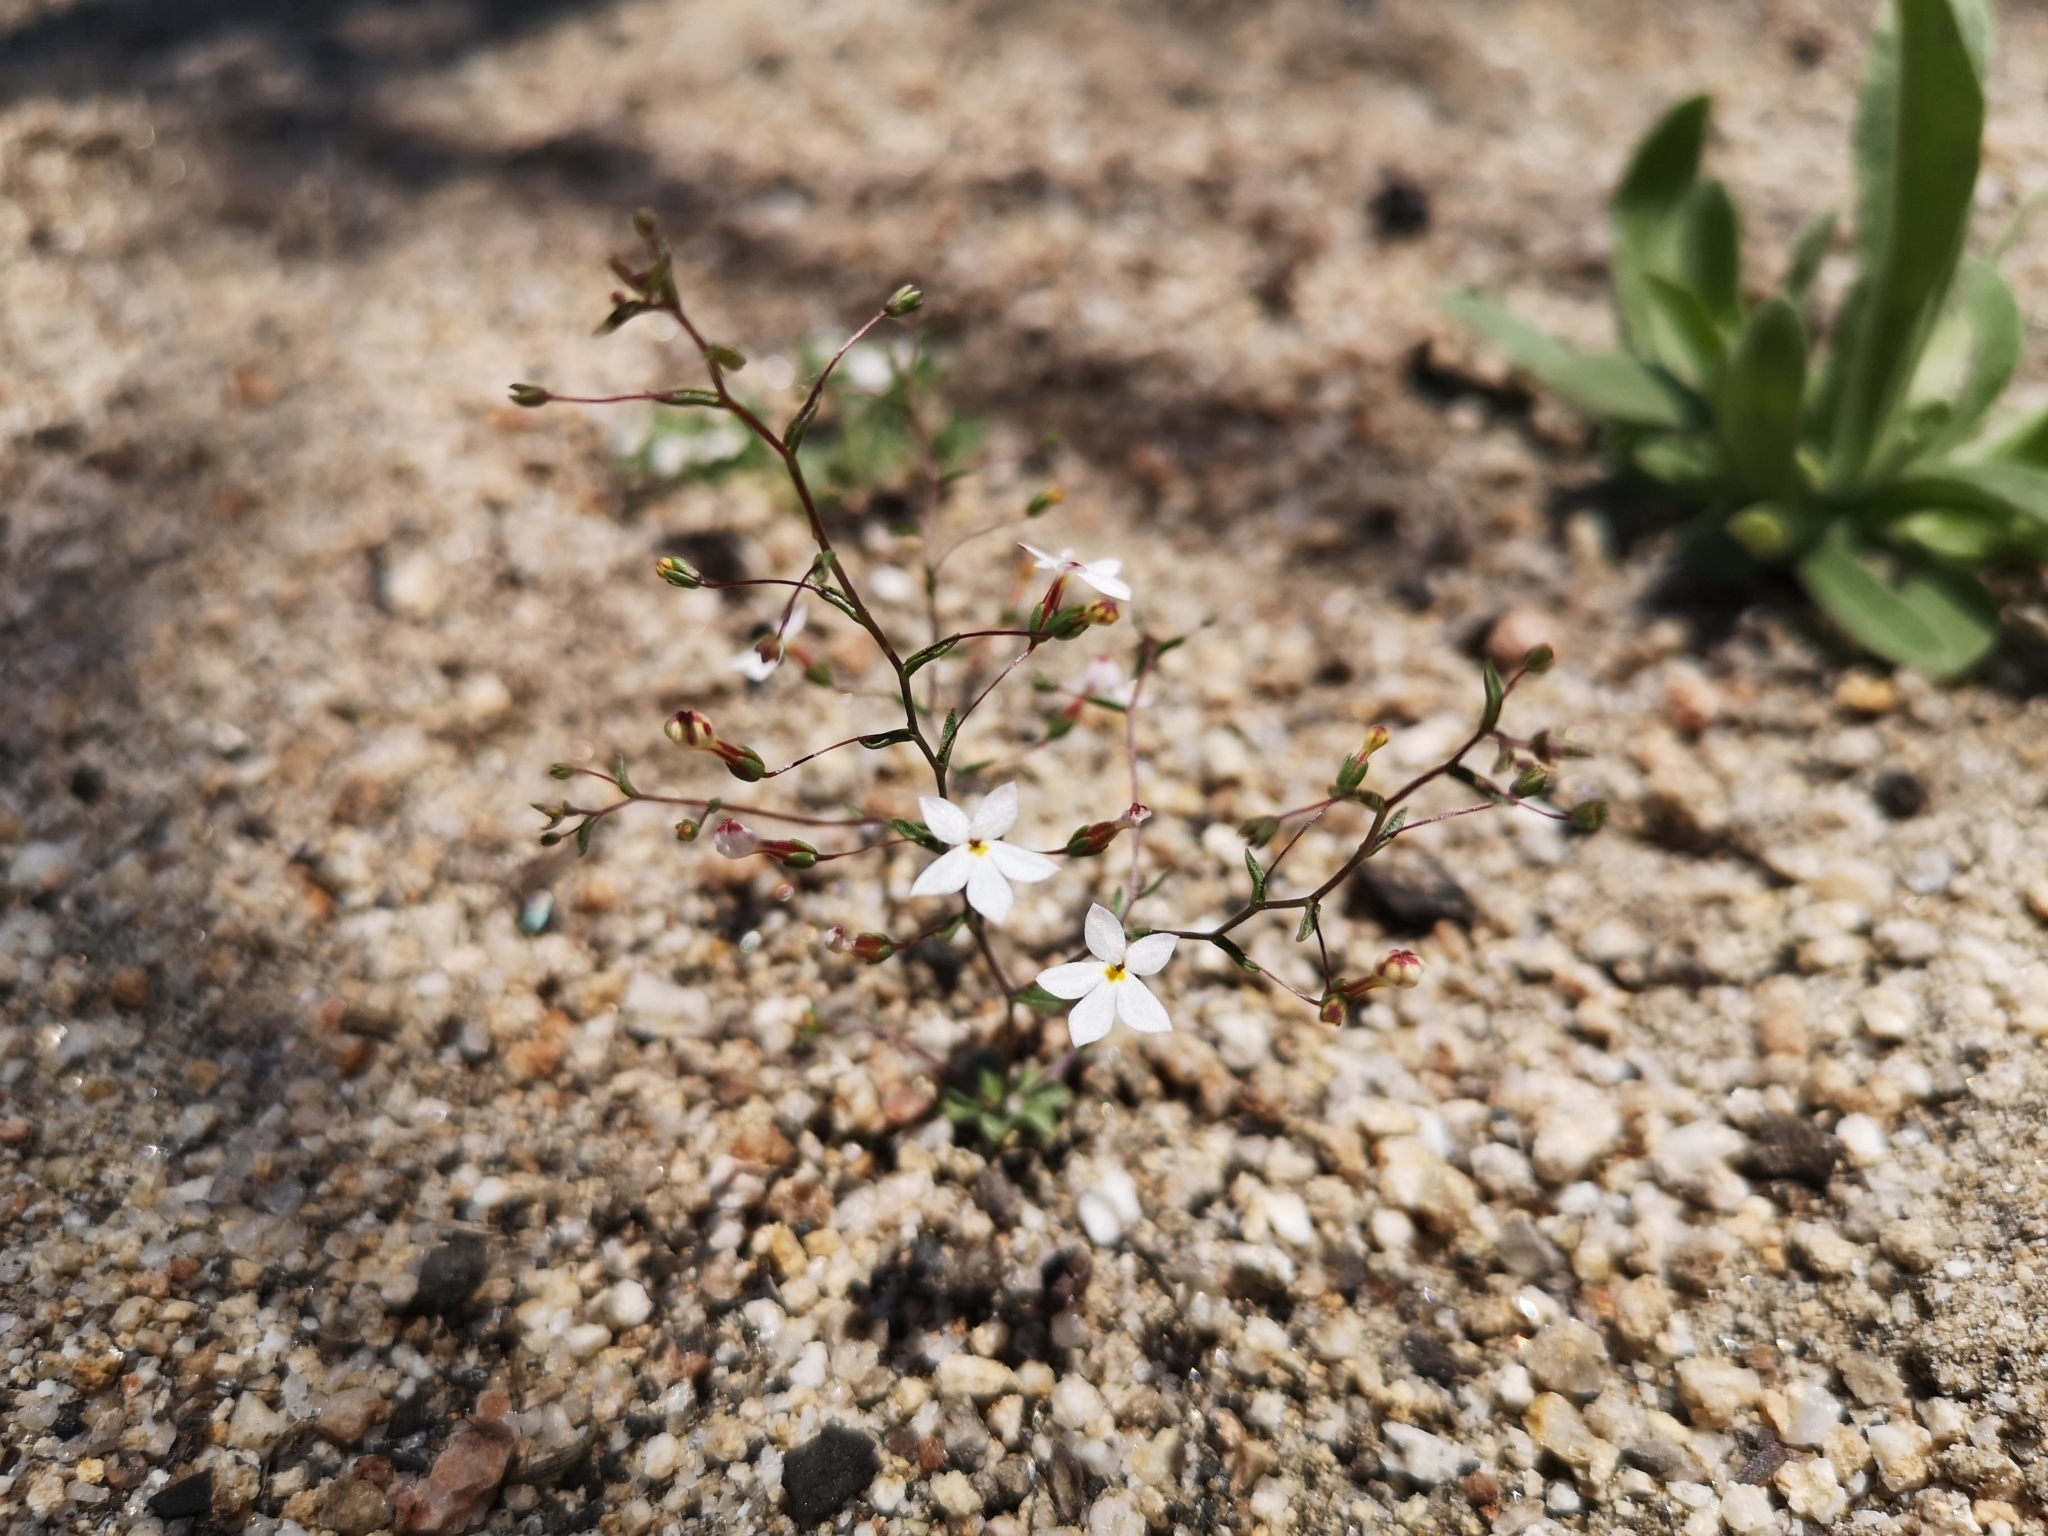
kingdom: Plantae
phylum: Tracheophyta
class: Magnoliopsida
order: Asterales
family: Campanulaceae
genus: Nemacladus
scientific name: Nemacladus longiflorus
